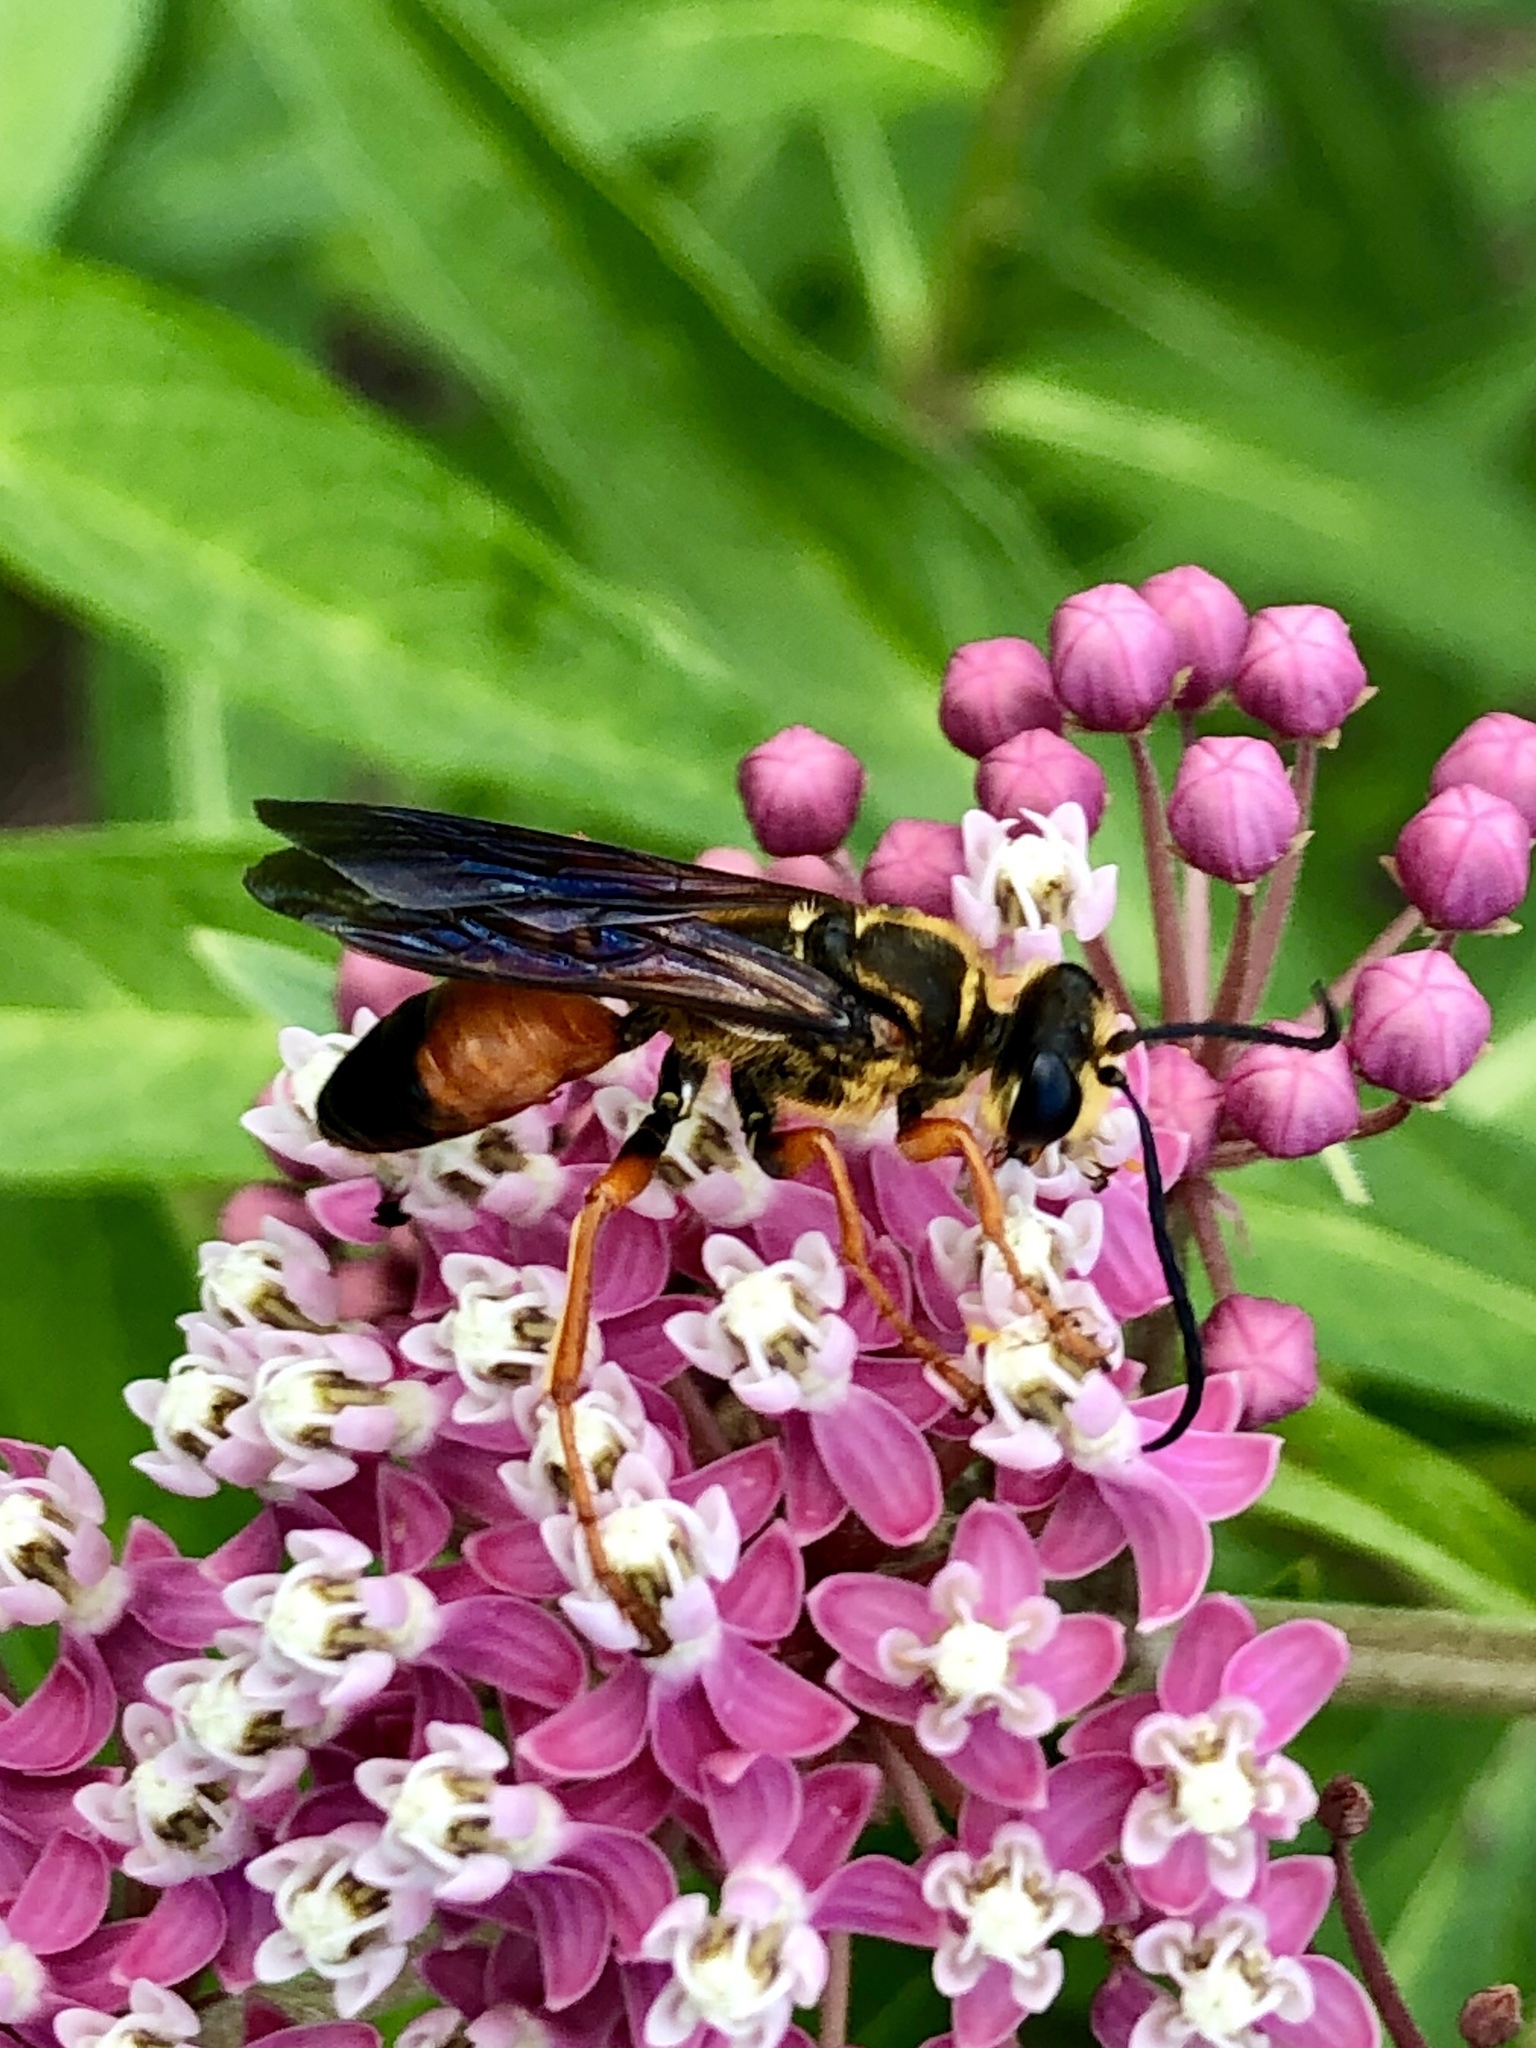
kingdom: Animalia
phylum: Arthropoda
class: Insecta
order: Hymenoptera
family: Sphecidae
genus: Sphex
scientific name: Sphex ichneumoneus
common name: Great golden digger wasp
